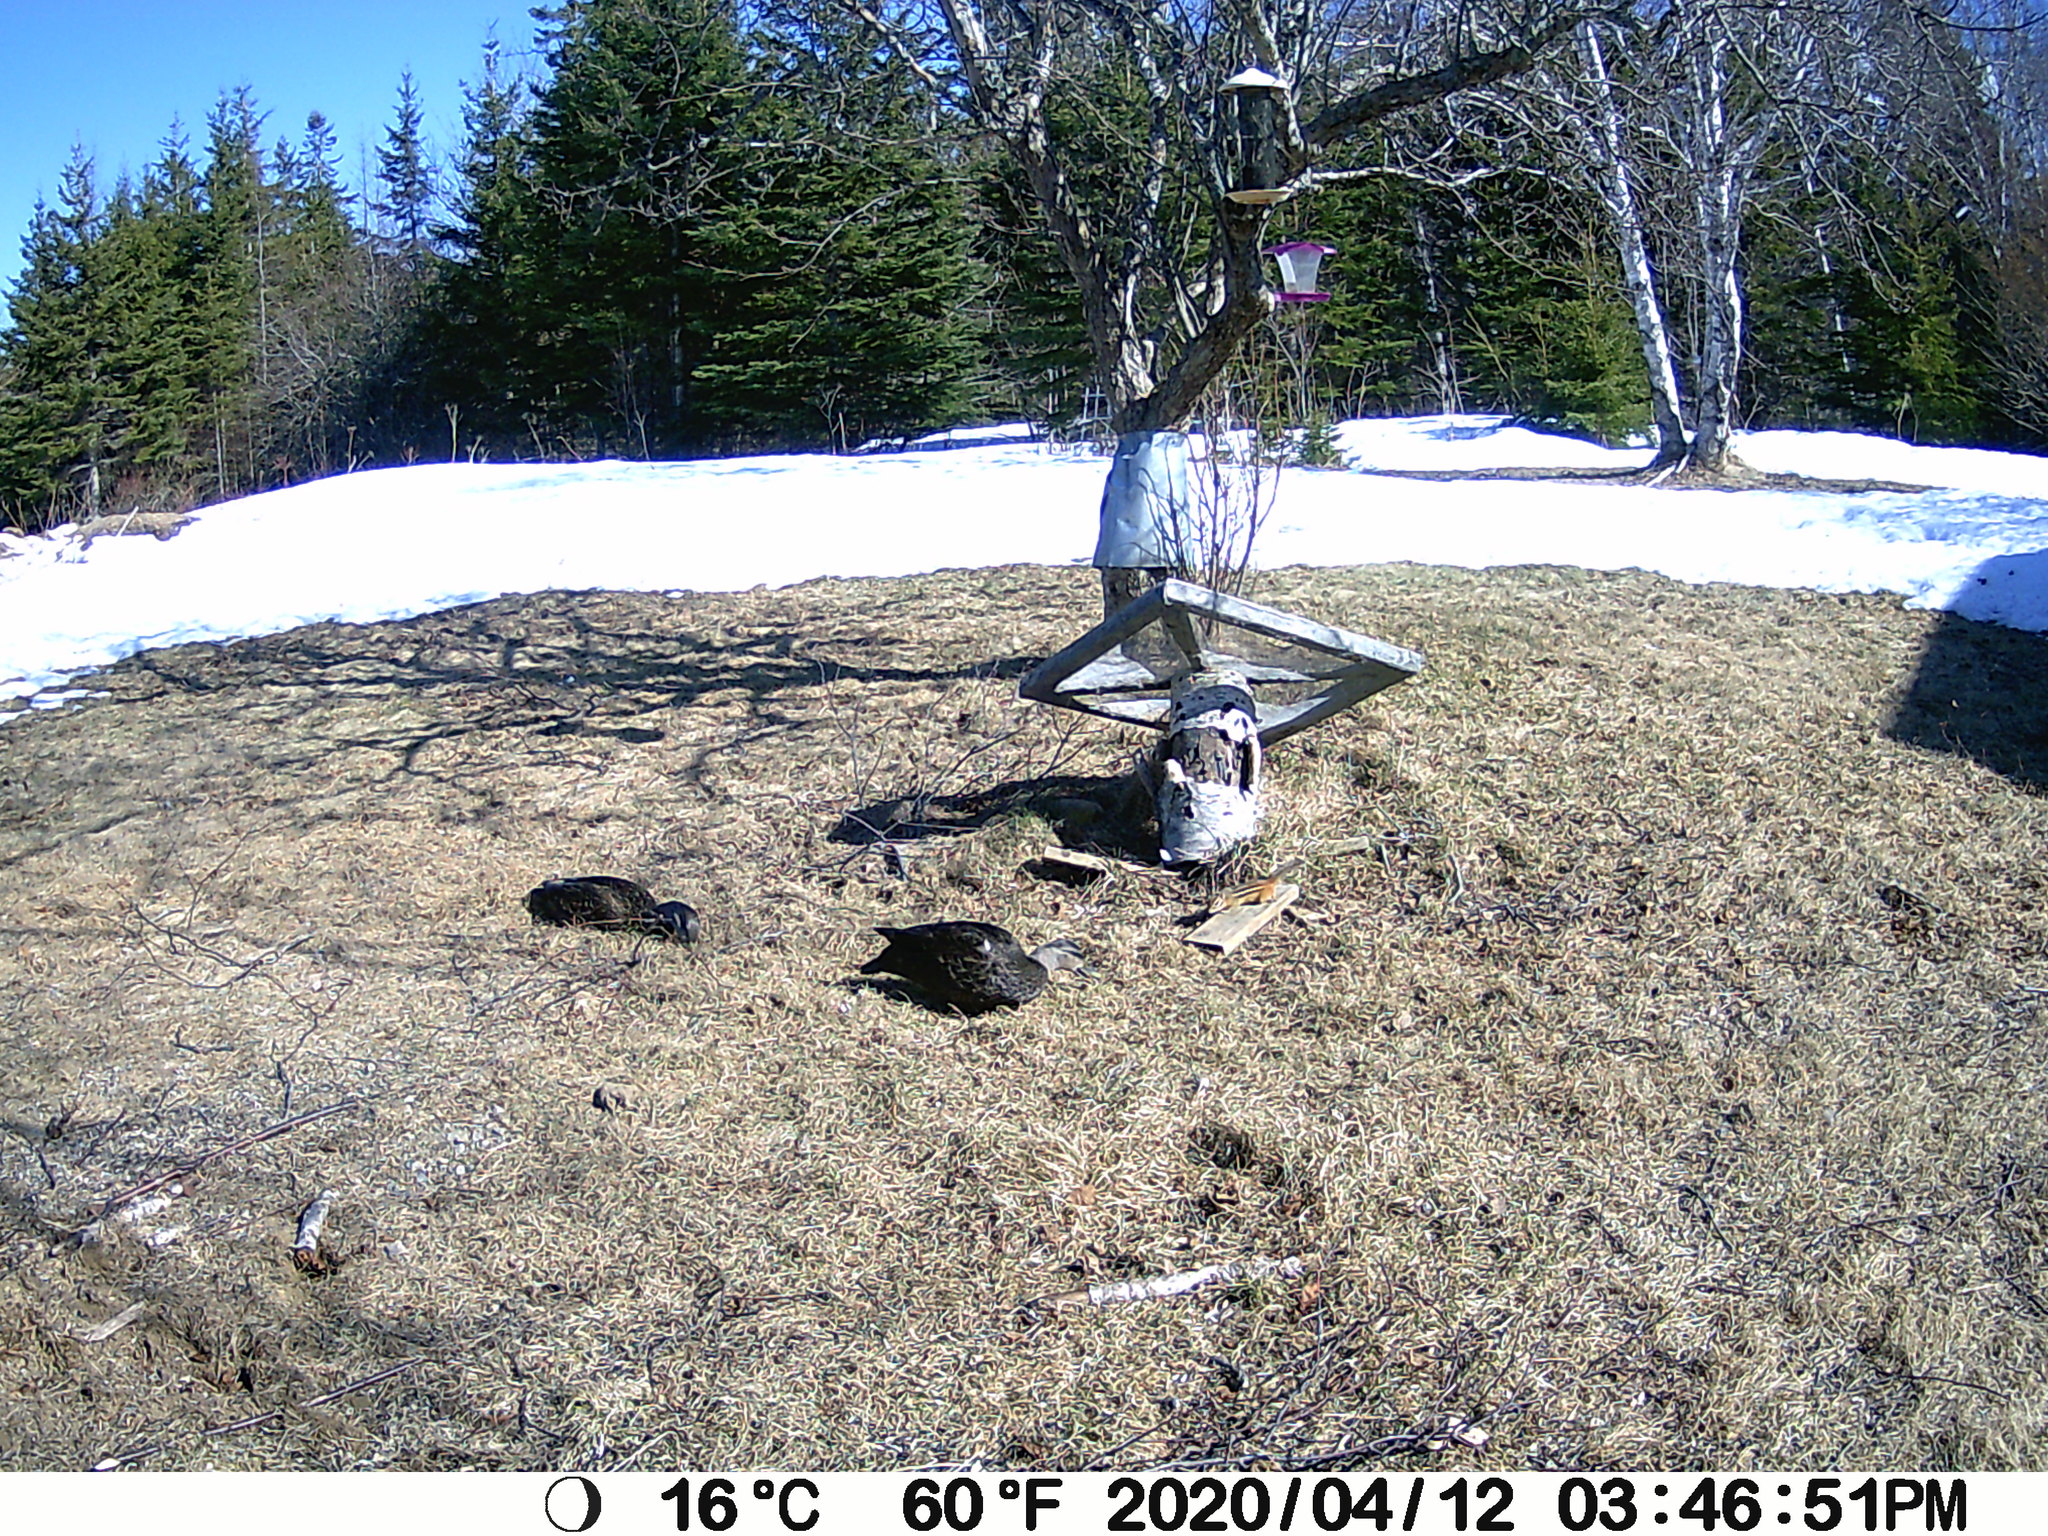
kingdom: Animalia
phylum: Chordata
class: Mammalia
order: Rodentia
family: Sciuridae
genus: Tamias
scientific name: Tamias striatus
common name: Eastern chipmunk
